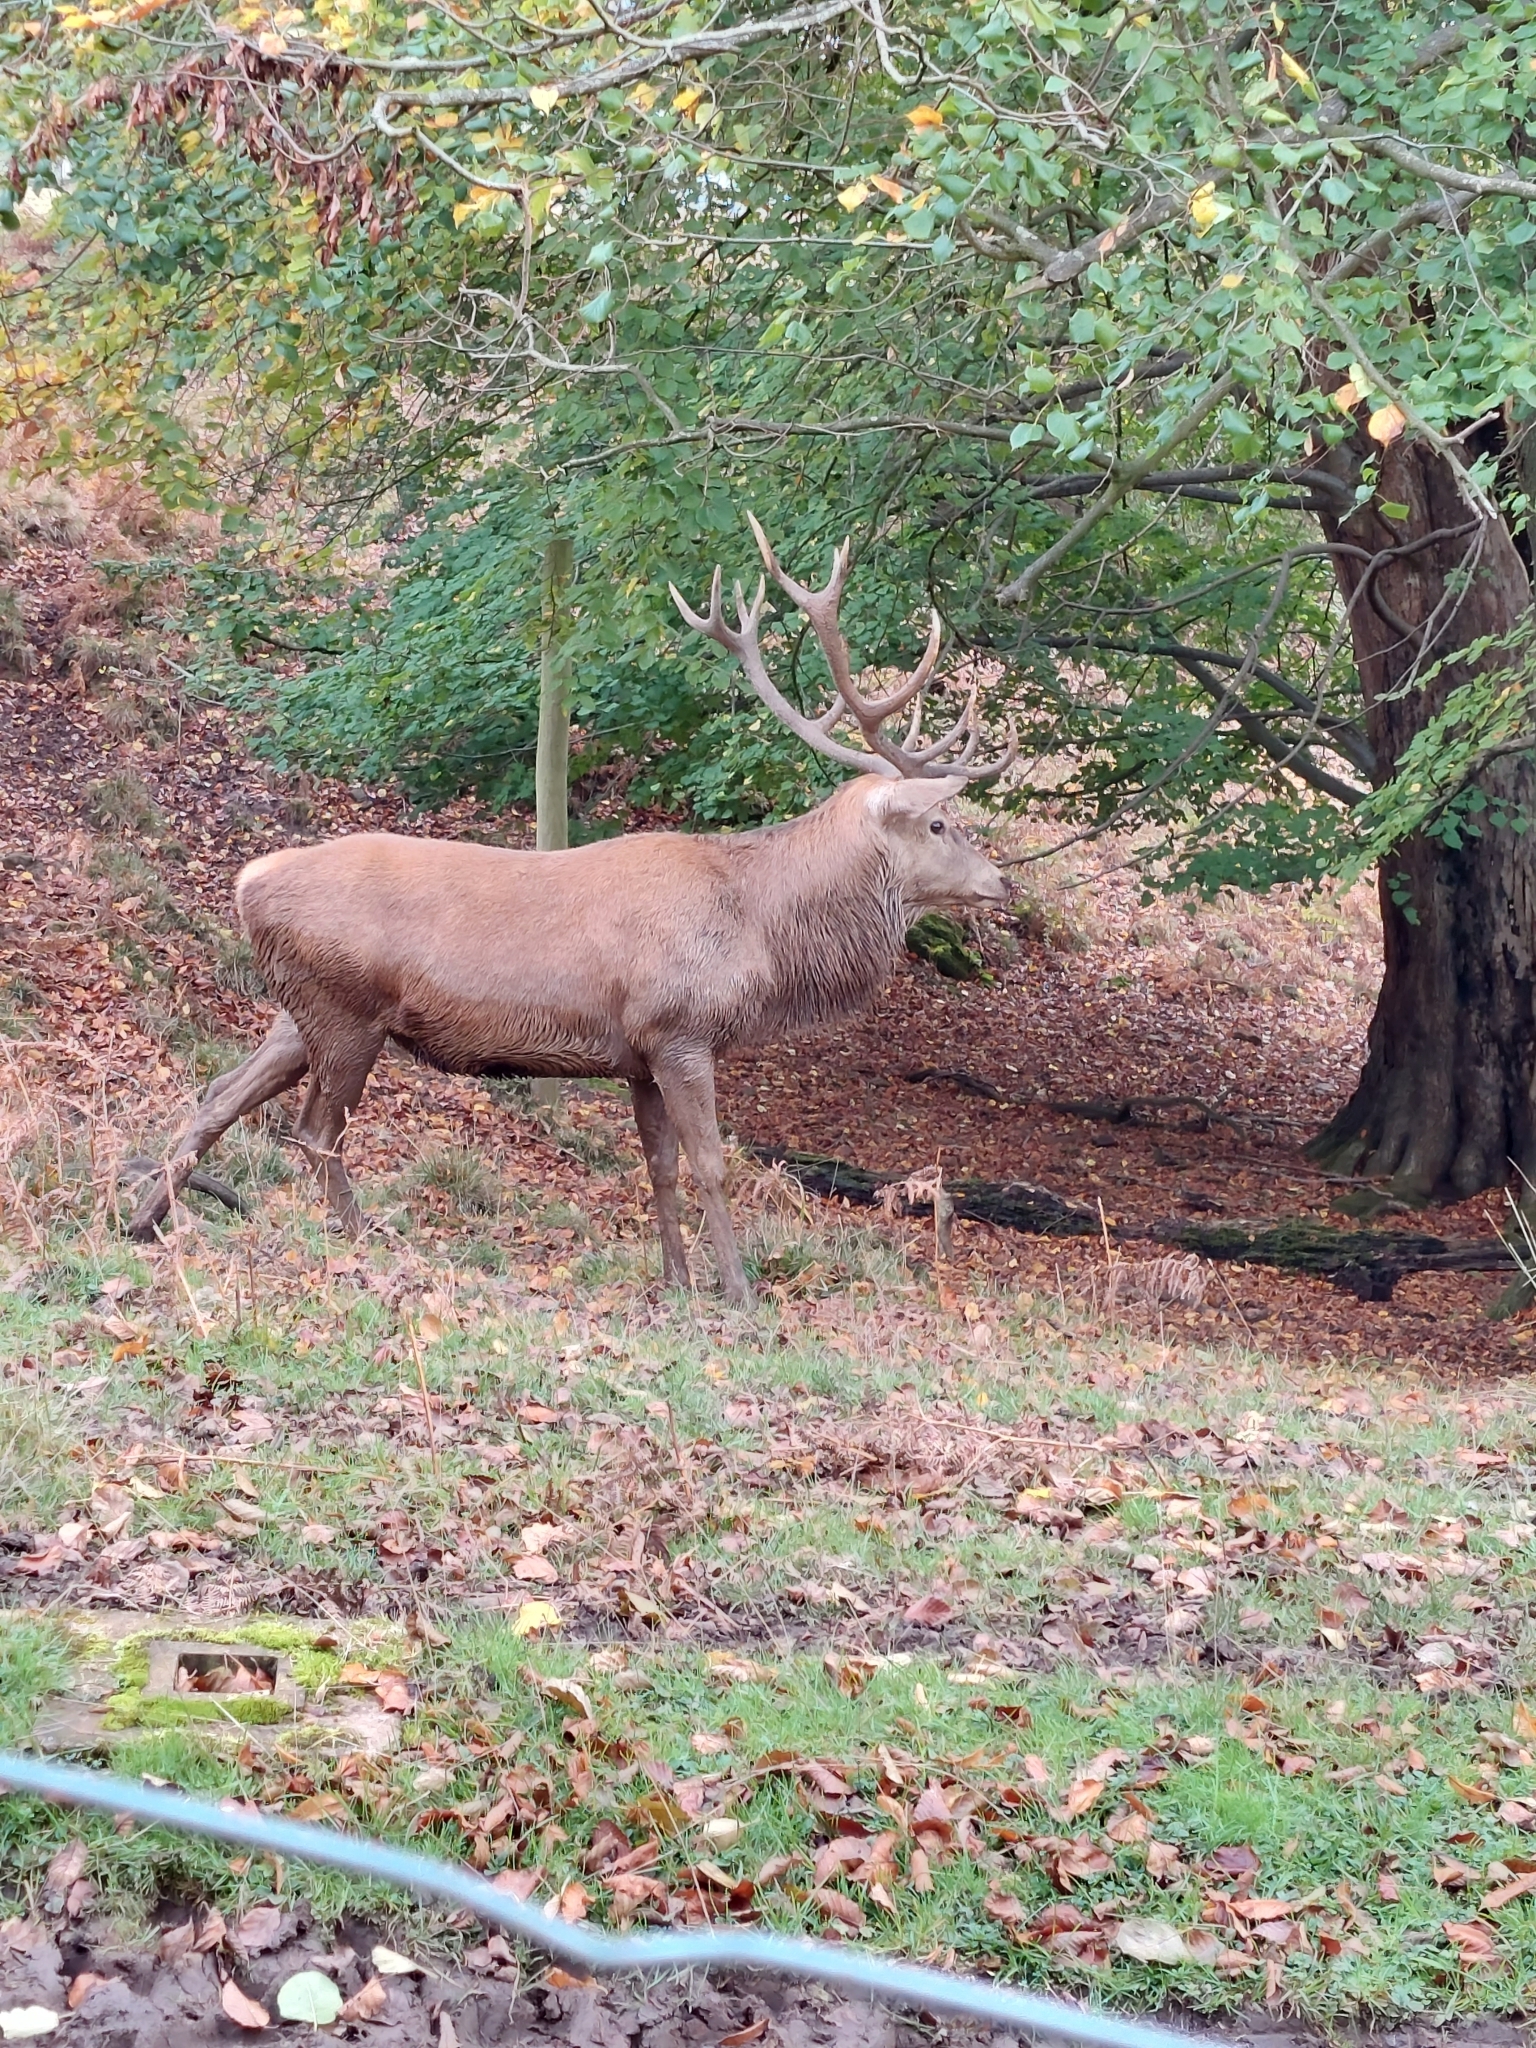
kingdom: Animalia
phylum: Chordata
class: Mammalia
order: Artiodactyla
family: Cervidae
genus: Cervus
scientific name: Cervus elaphus
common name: Red deer
